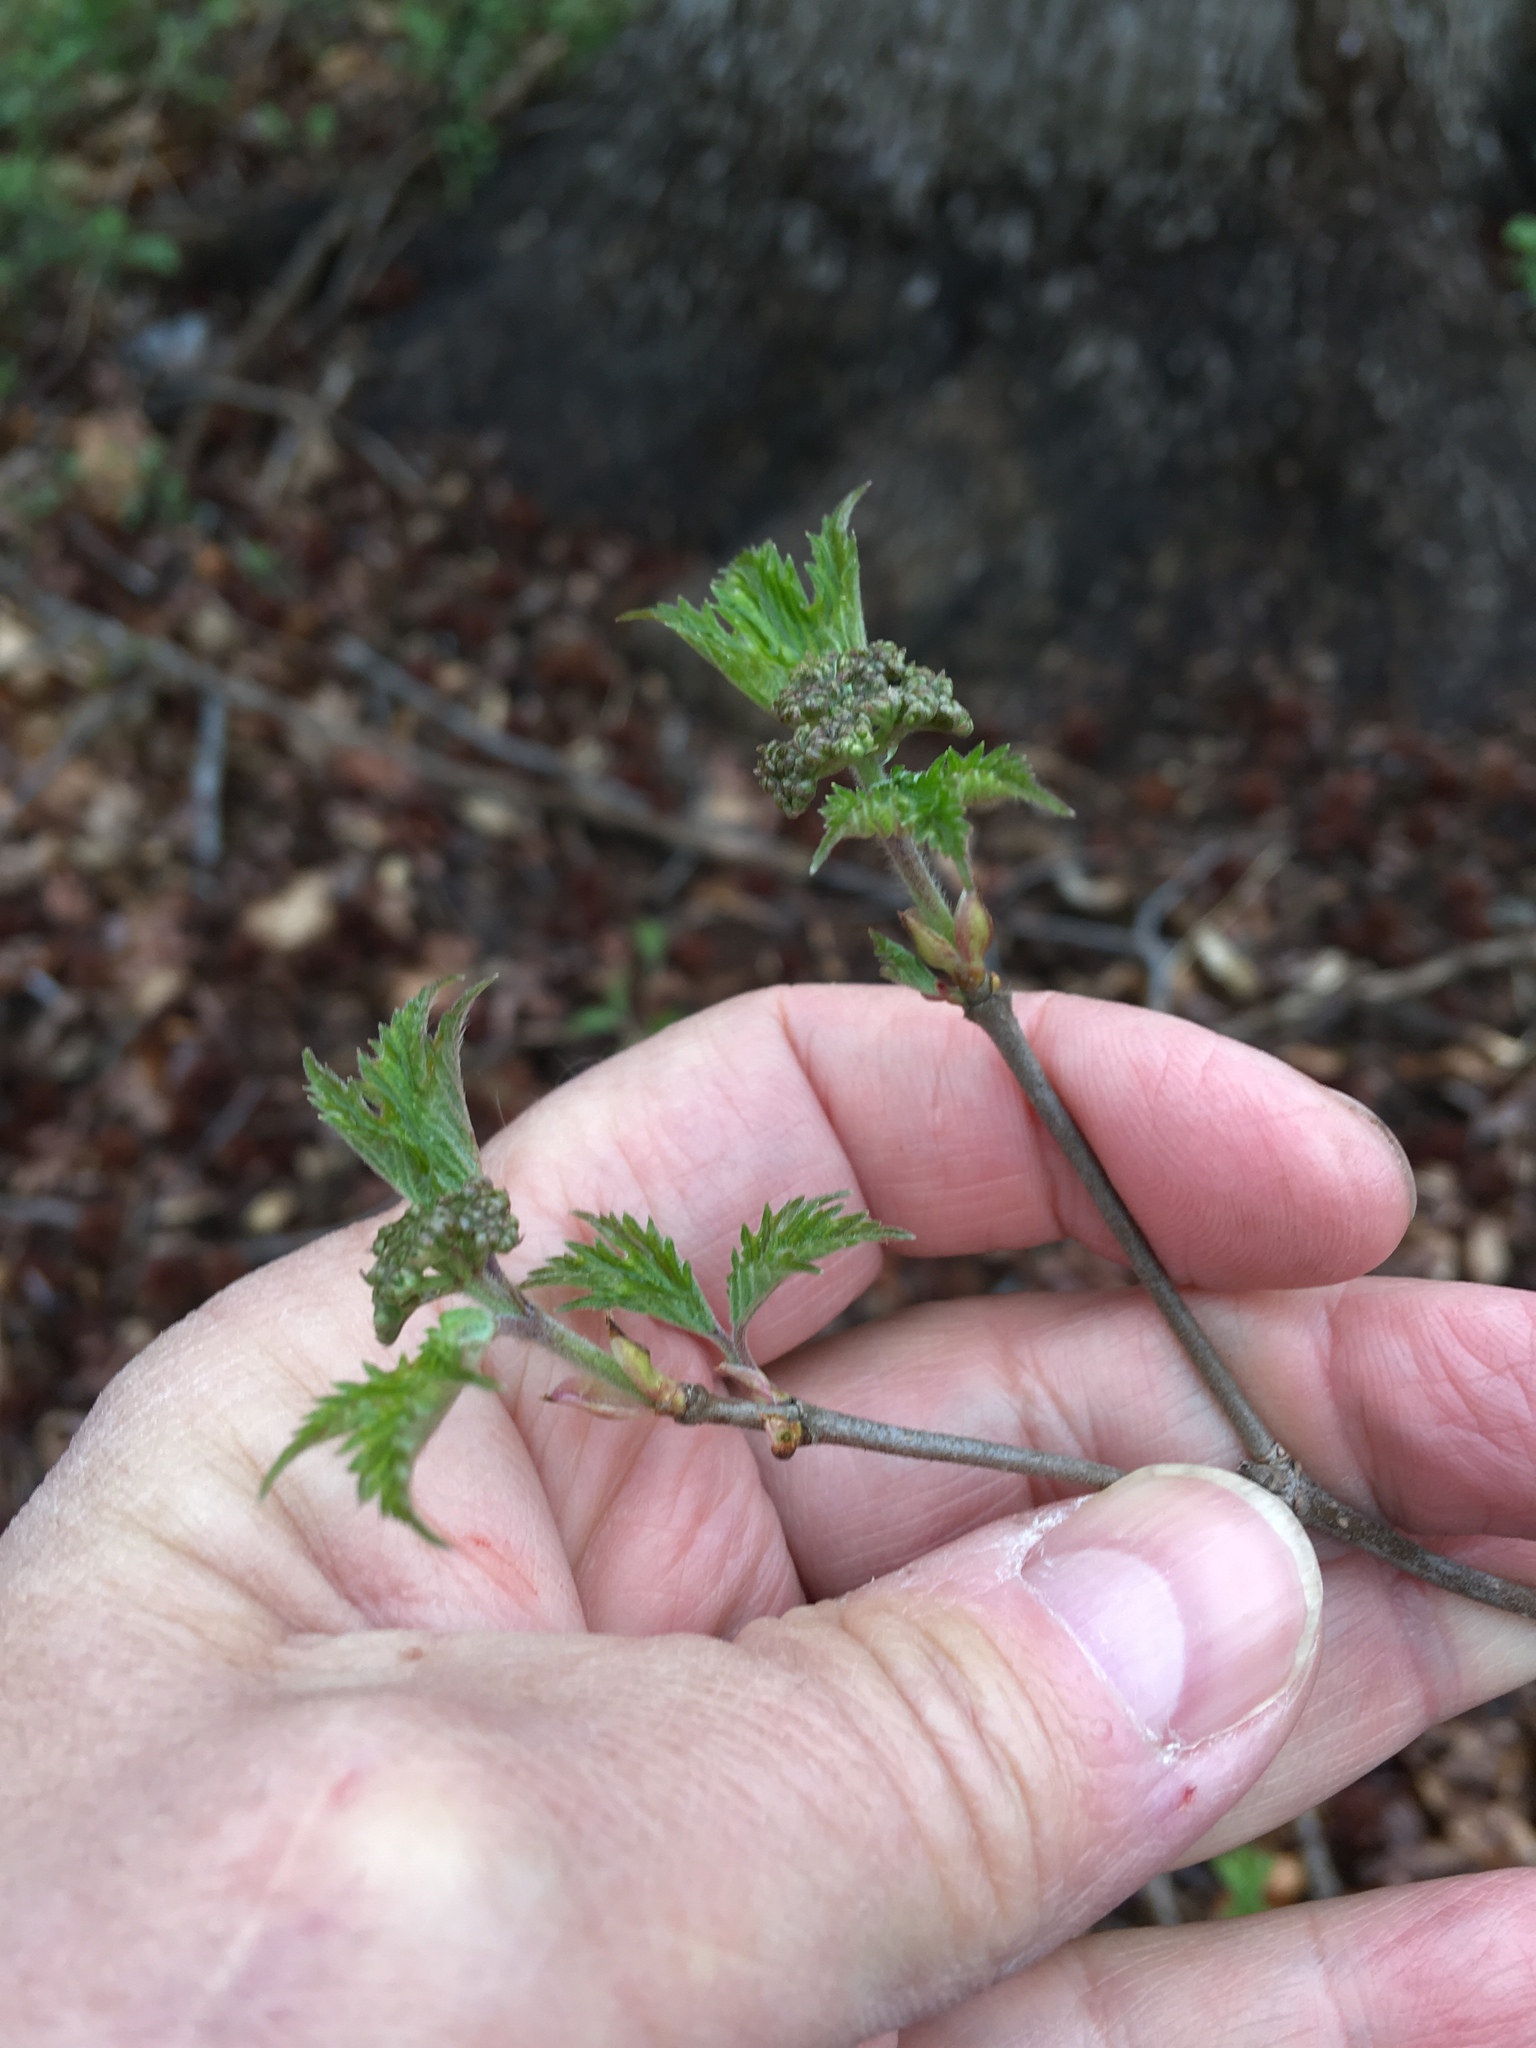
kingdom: Plantae
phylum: Tracheophyta
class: Magnoliopsida
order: Dipsacales
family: Viburnaceae
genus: Viburnum
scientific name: Viburnum acerifolium
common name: Dockmackie
